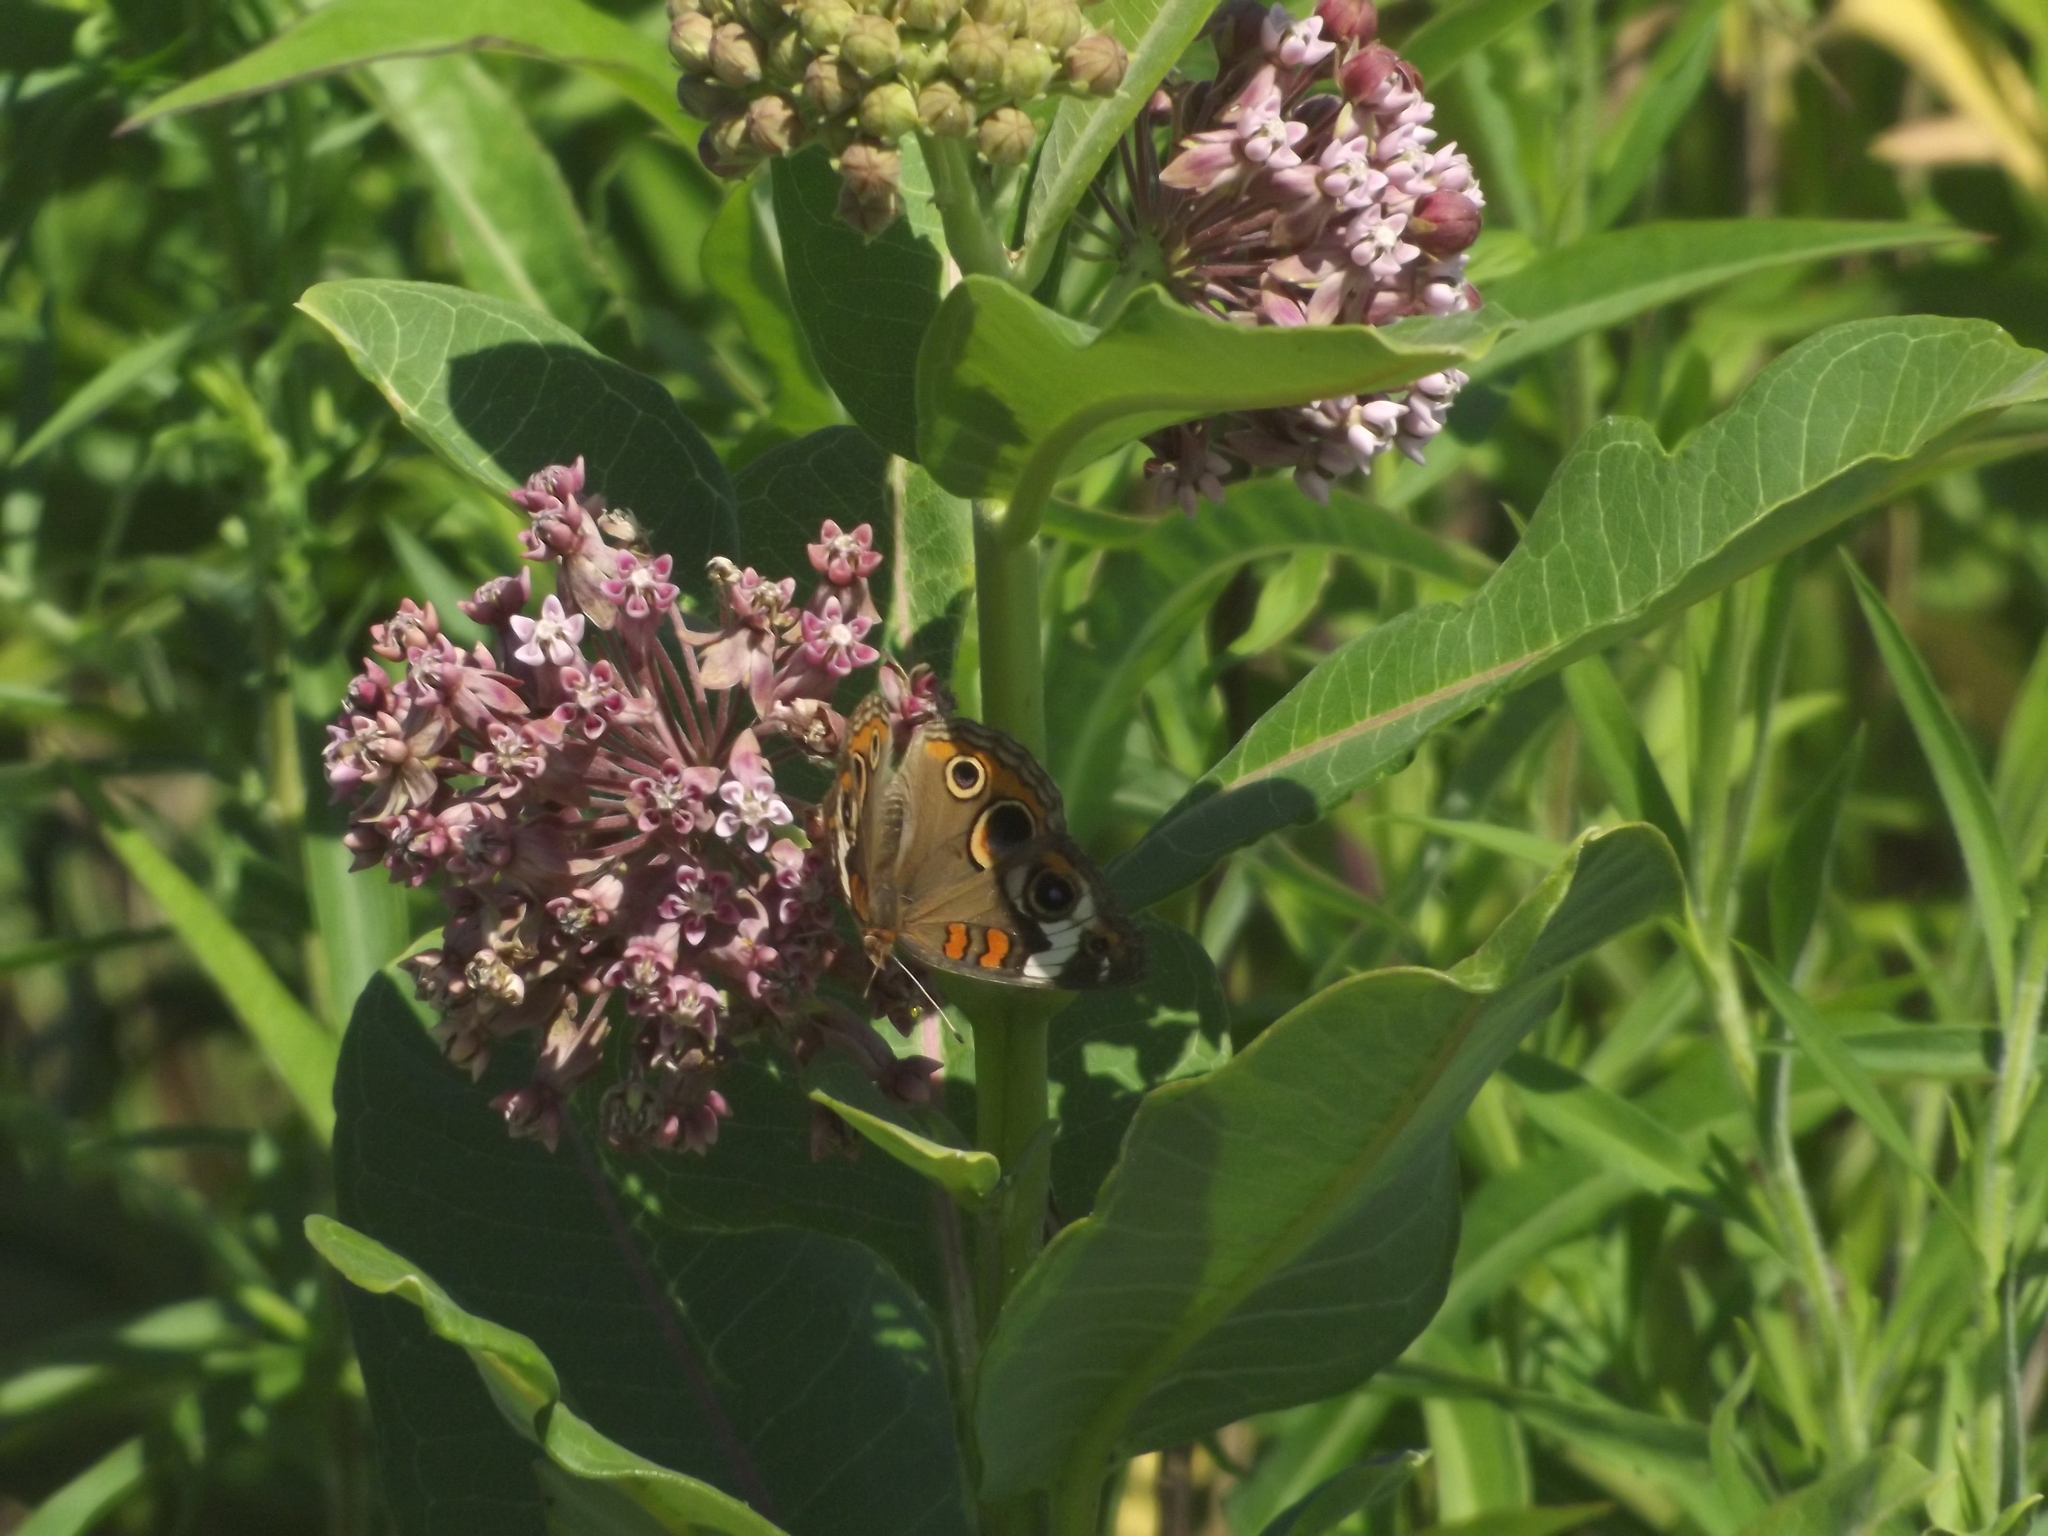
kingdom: Animalia
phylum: Arthropoda
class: Insecta
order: Lepidoptera
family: Nymphalidae
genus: Junonia
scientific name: Junonia coenia
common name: Common buckeye
